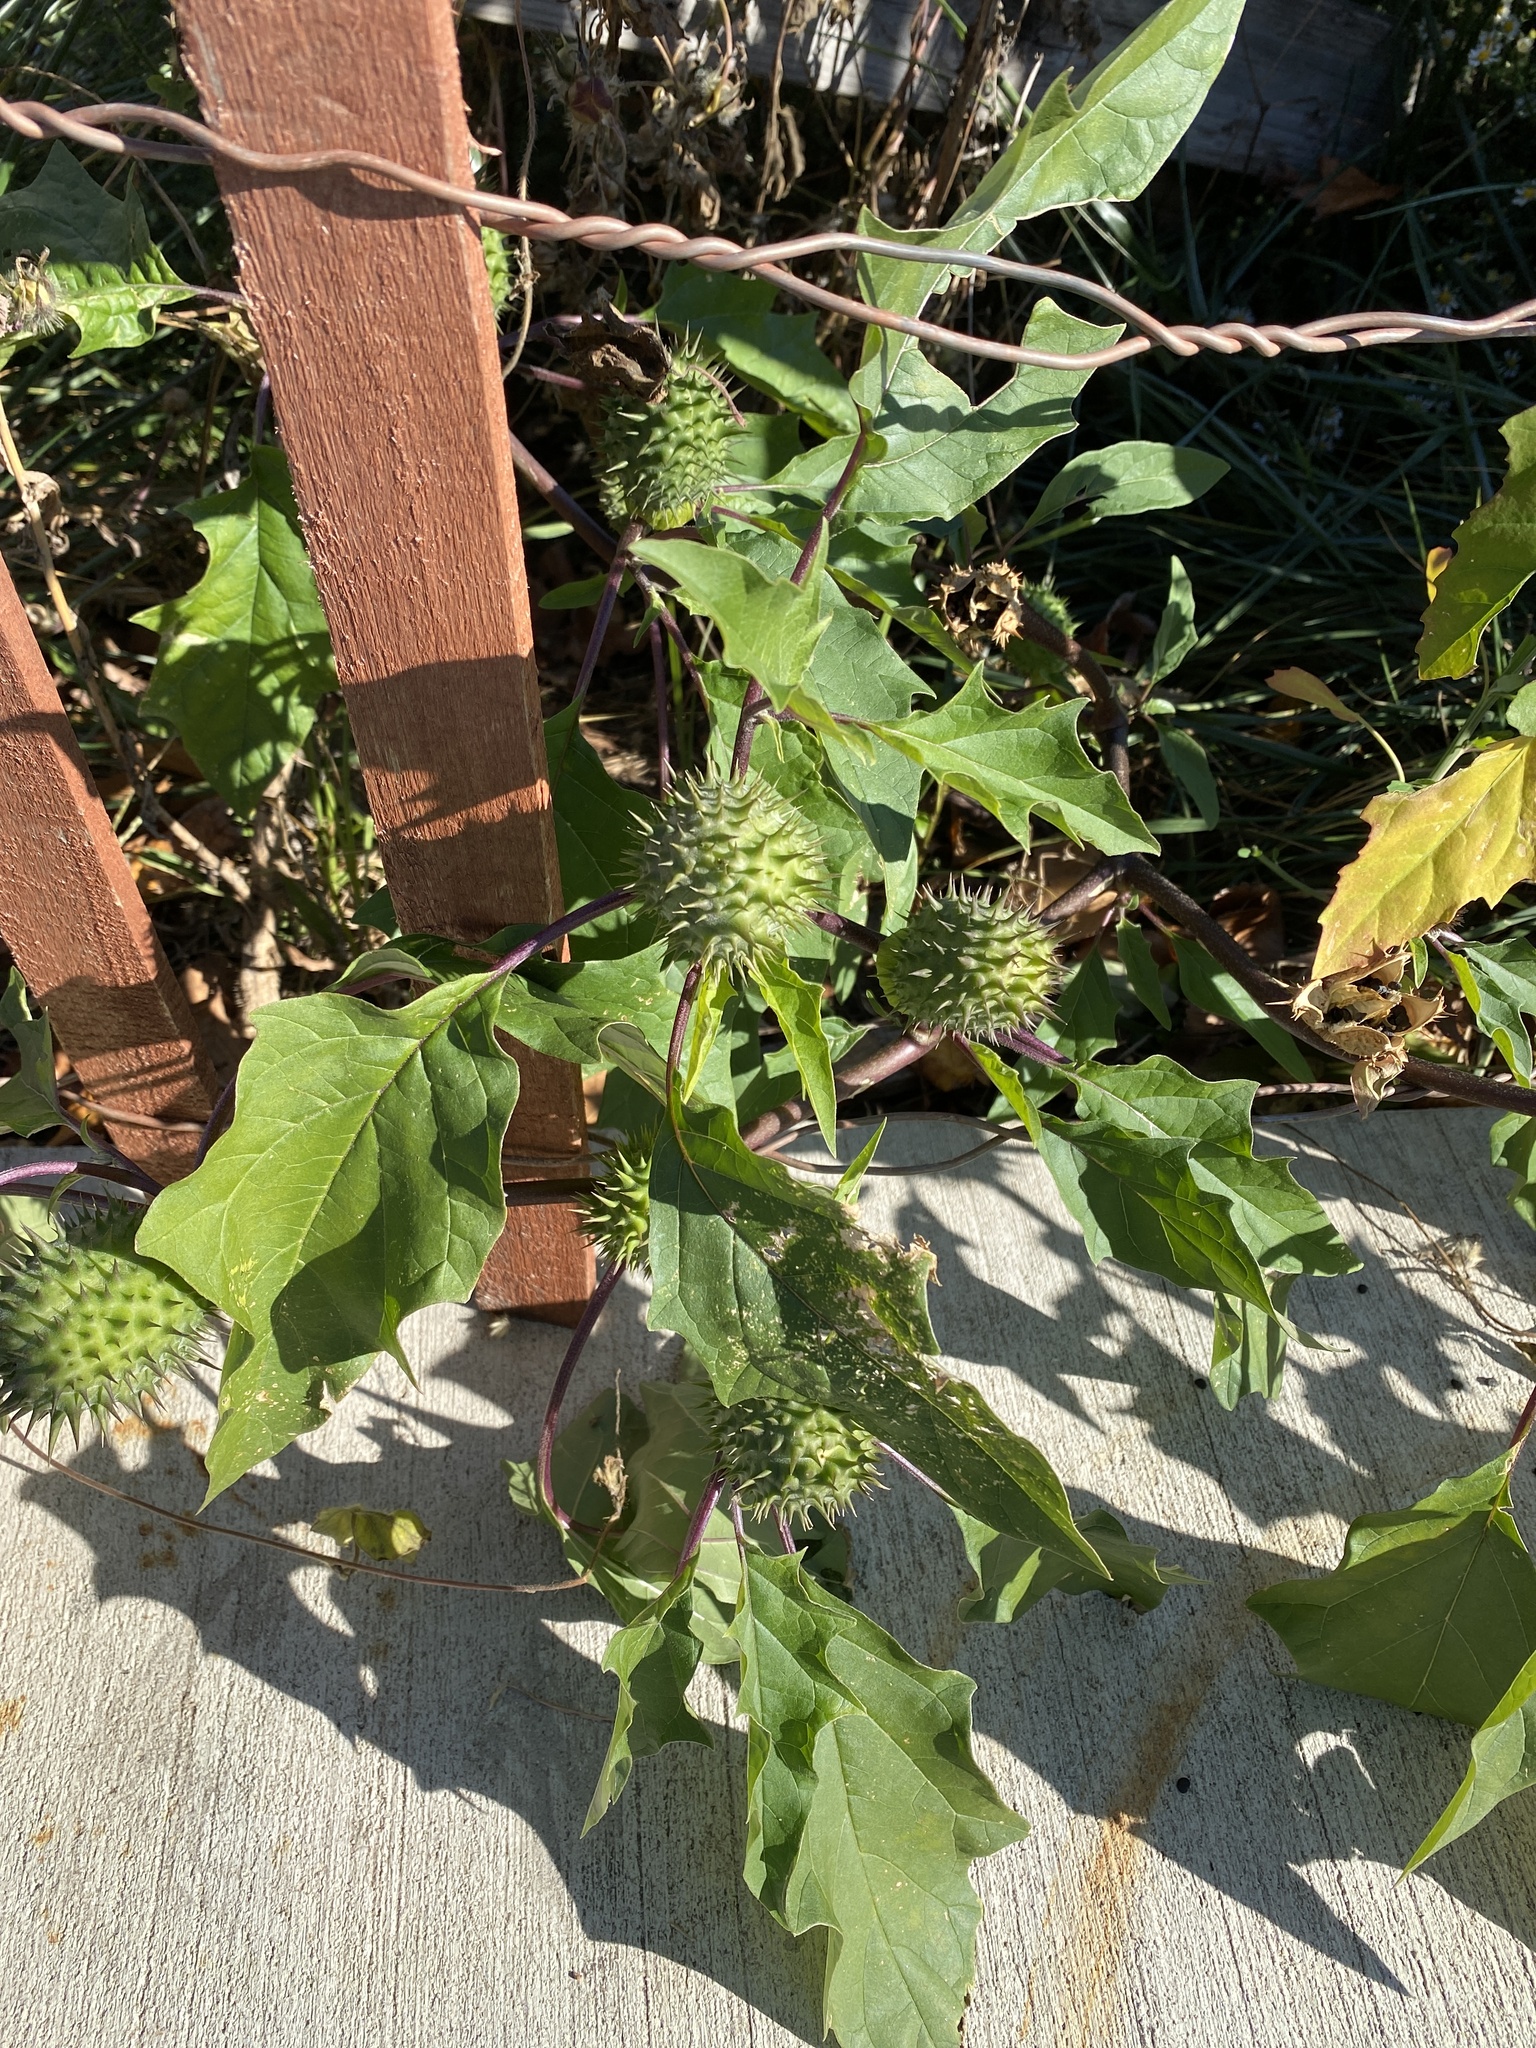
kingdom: Plantae
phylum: Tracheophyta
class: Magnoliopsida
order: Solanales
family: Solanaceae
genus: Datura
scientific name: Datura stramonium
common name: Thorn-apple
